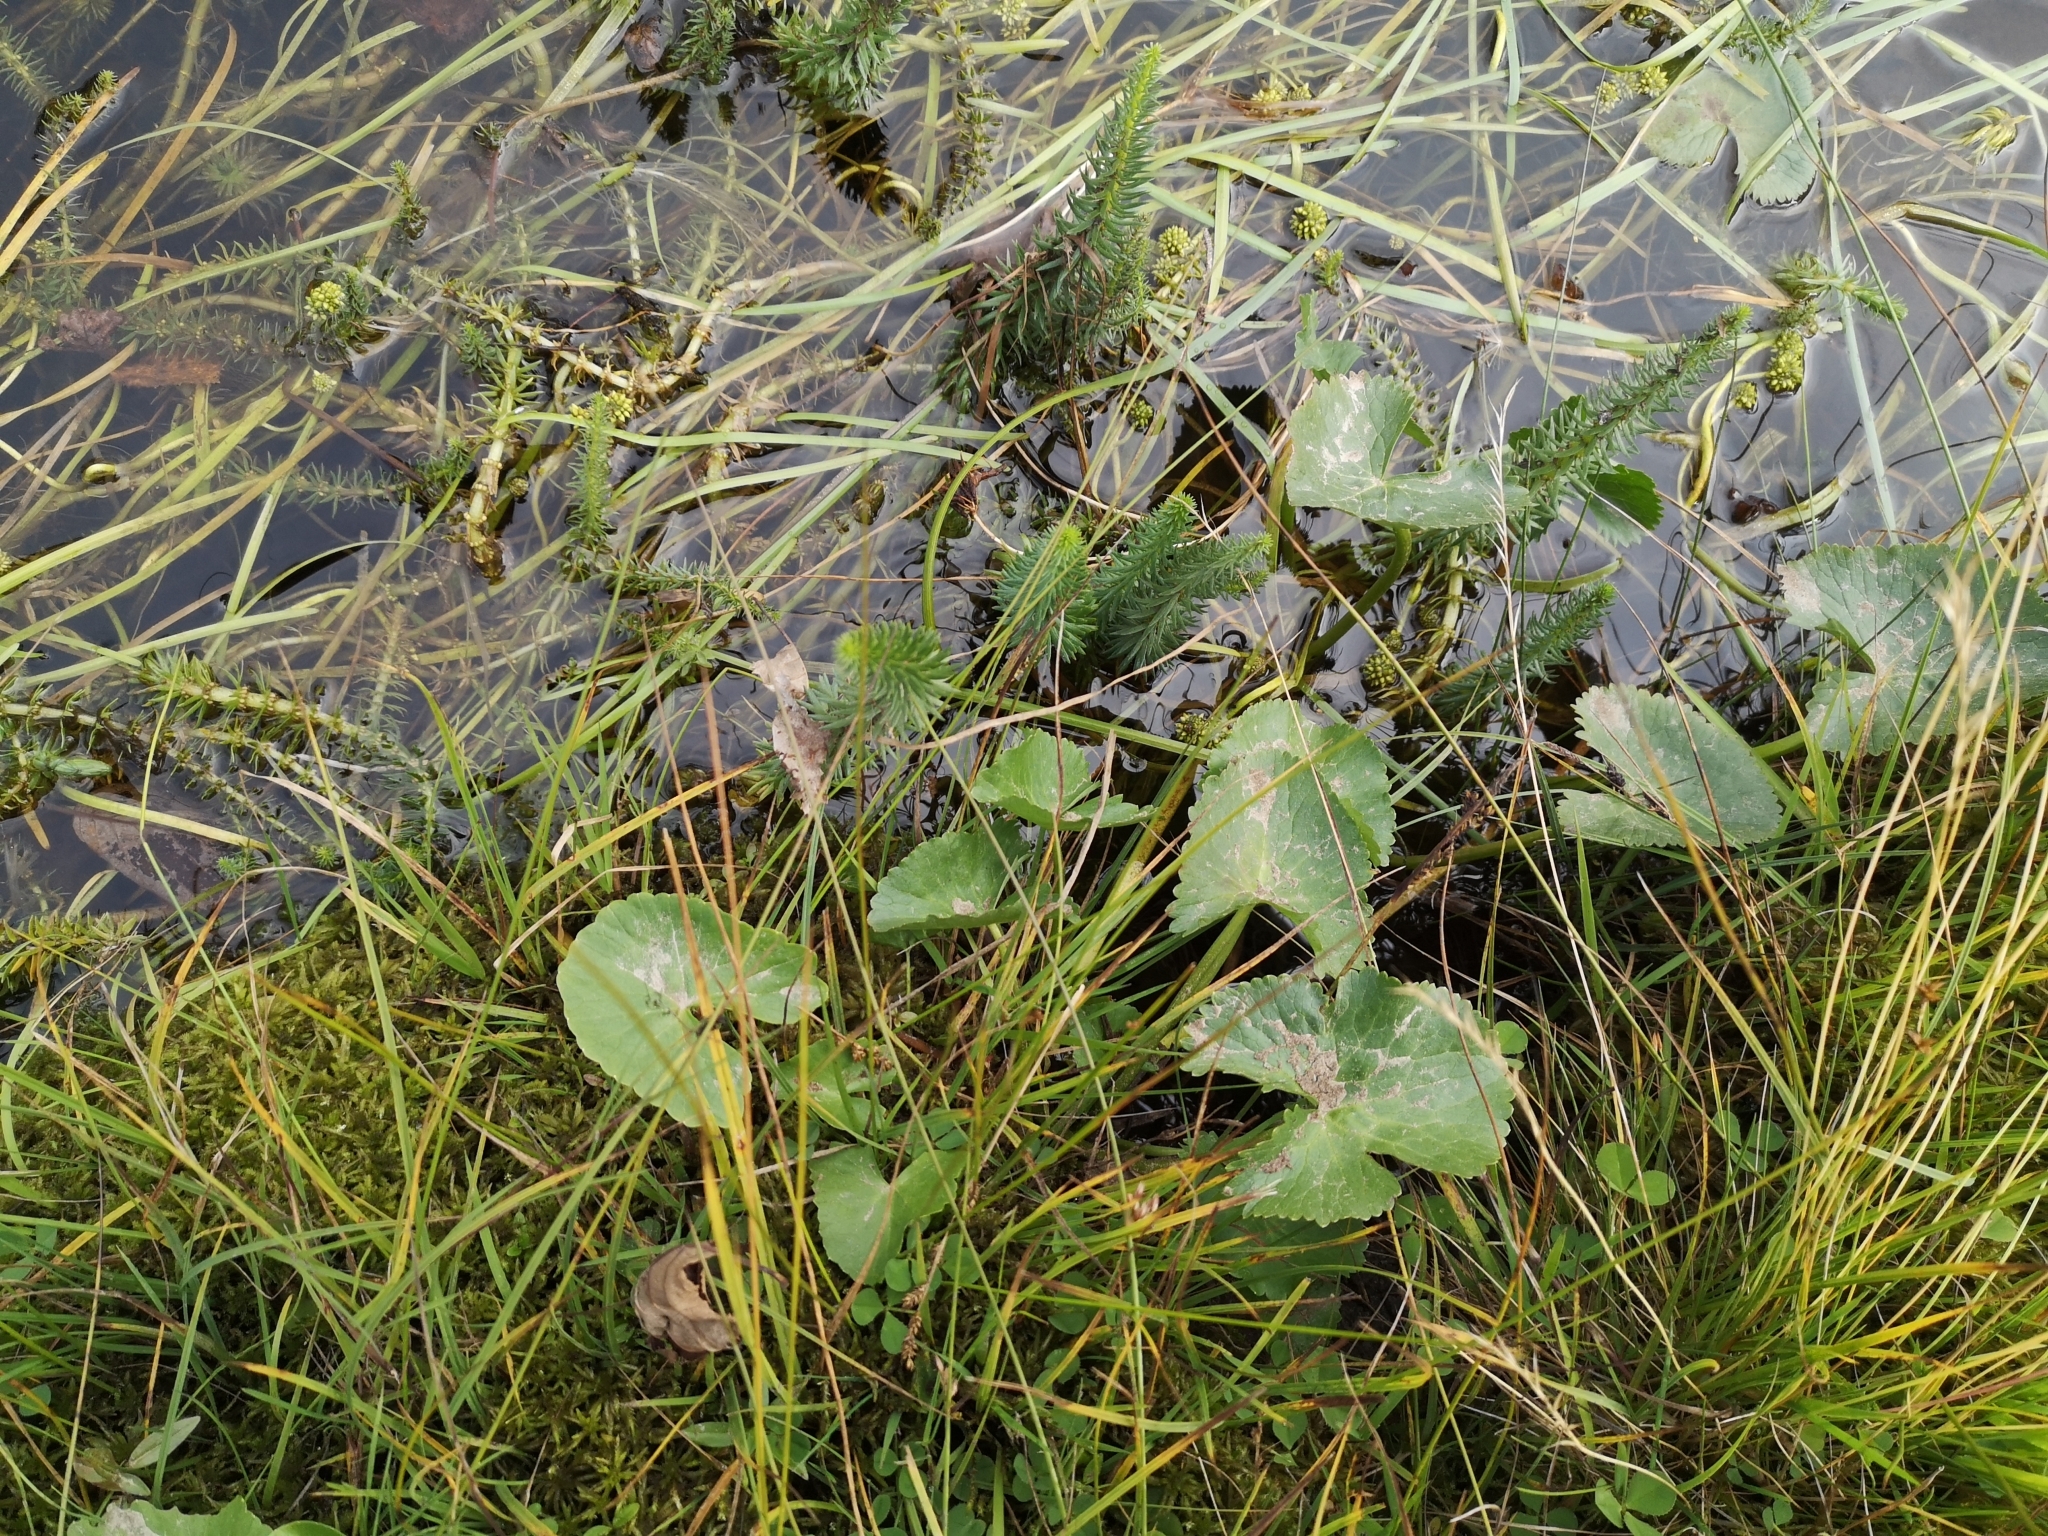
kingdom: Plantae
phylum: Tracheophyta
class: Magnoliopsida
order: Ranunculales
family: Ranunculaceae
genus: Caltha
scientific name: Caltha palustris
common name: Marsh marigold
